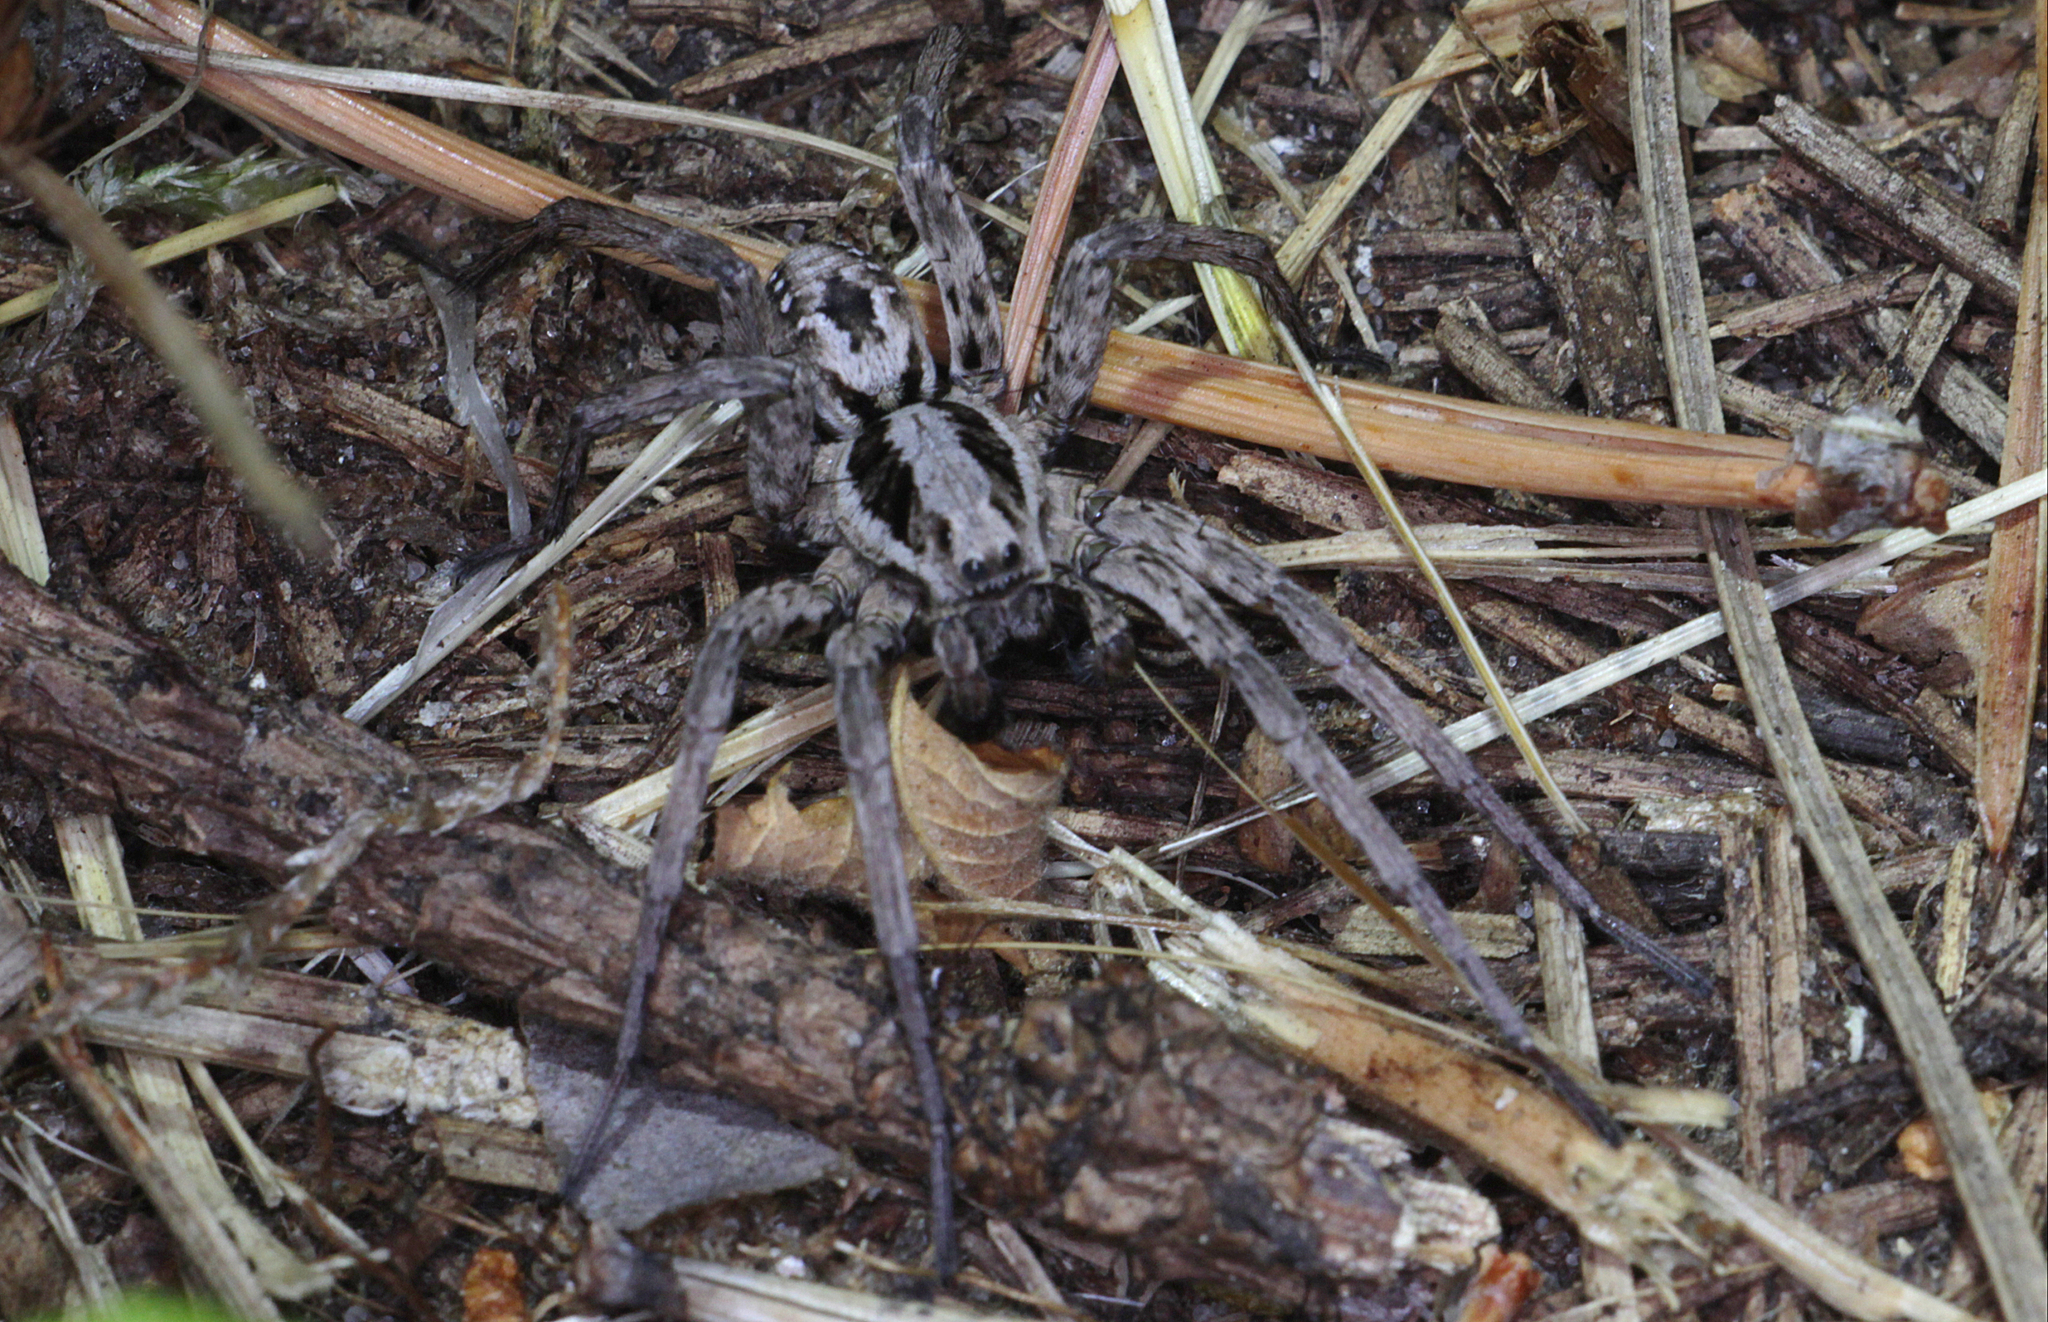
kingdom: Animalia
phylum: Arthropoda
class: Arachnida
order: Araneae
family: Lycosidae
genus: Alopecosa
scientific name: Alopecosa fabrilis
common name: Great fox-spider
